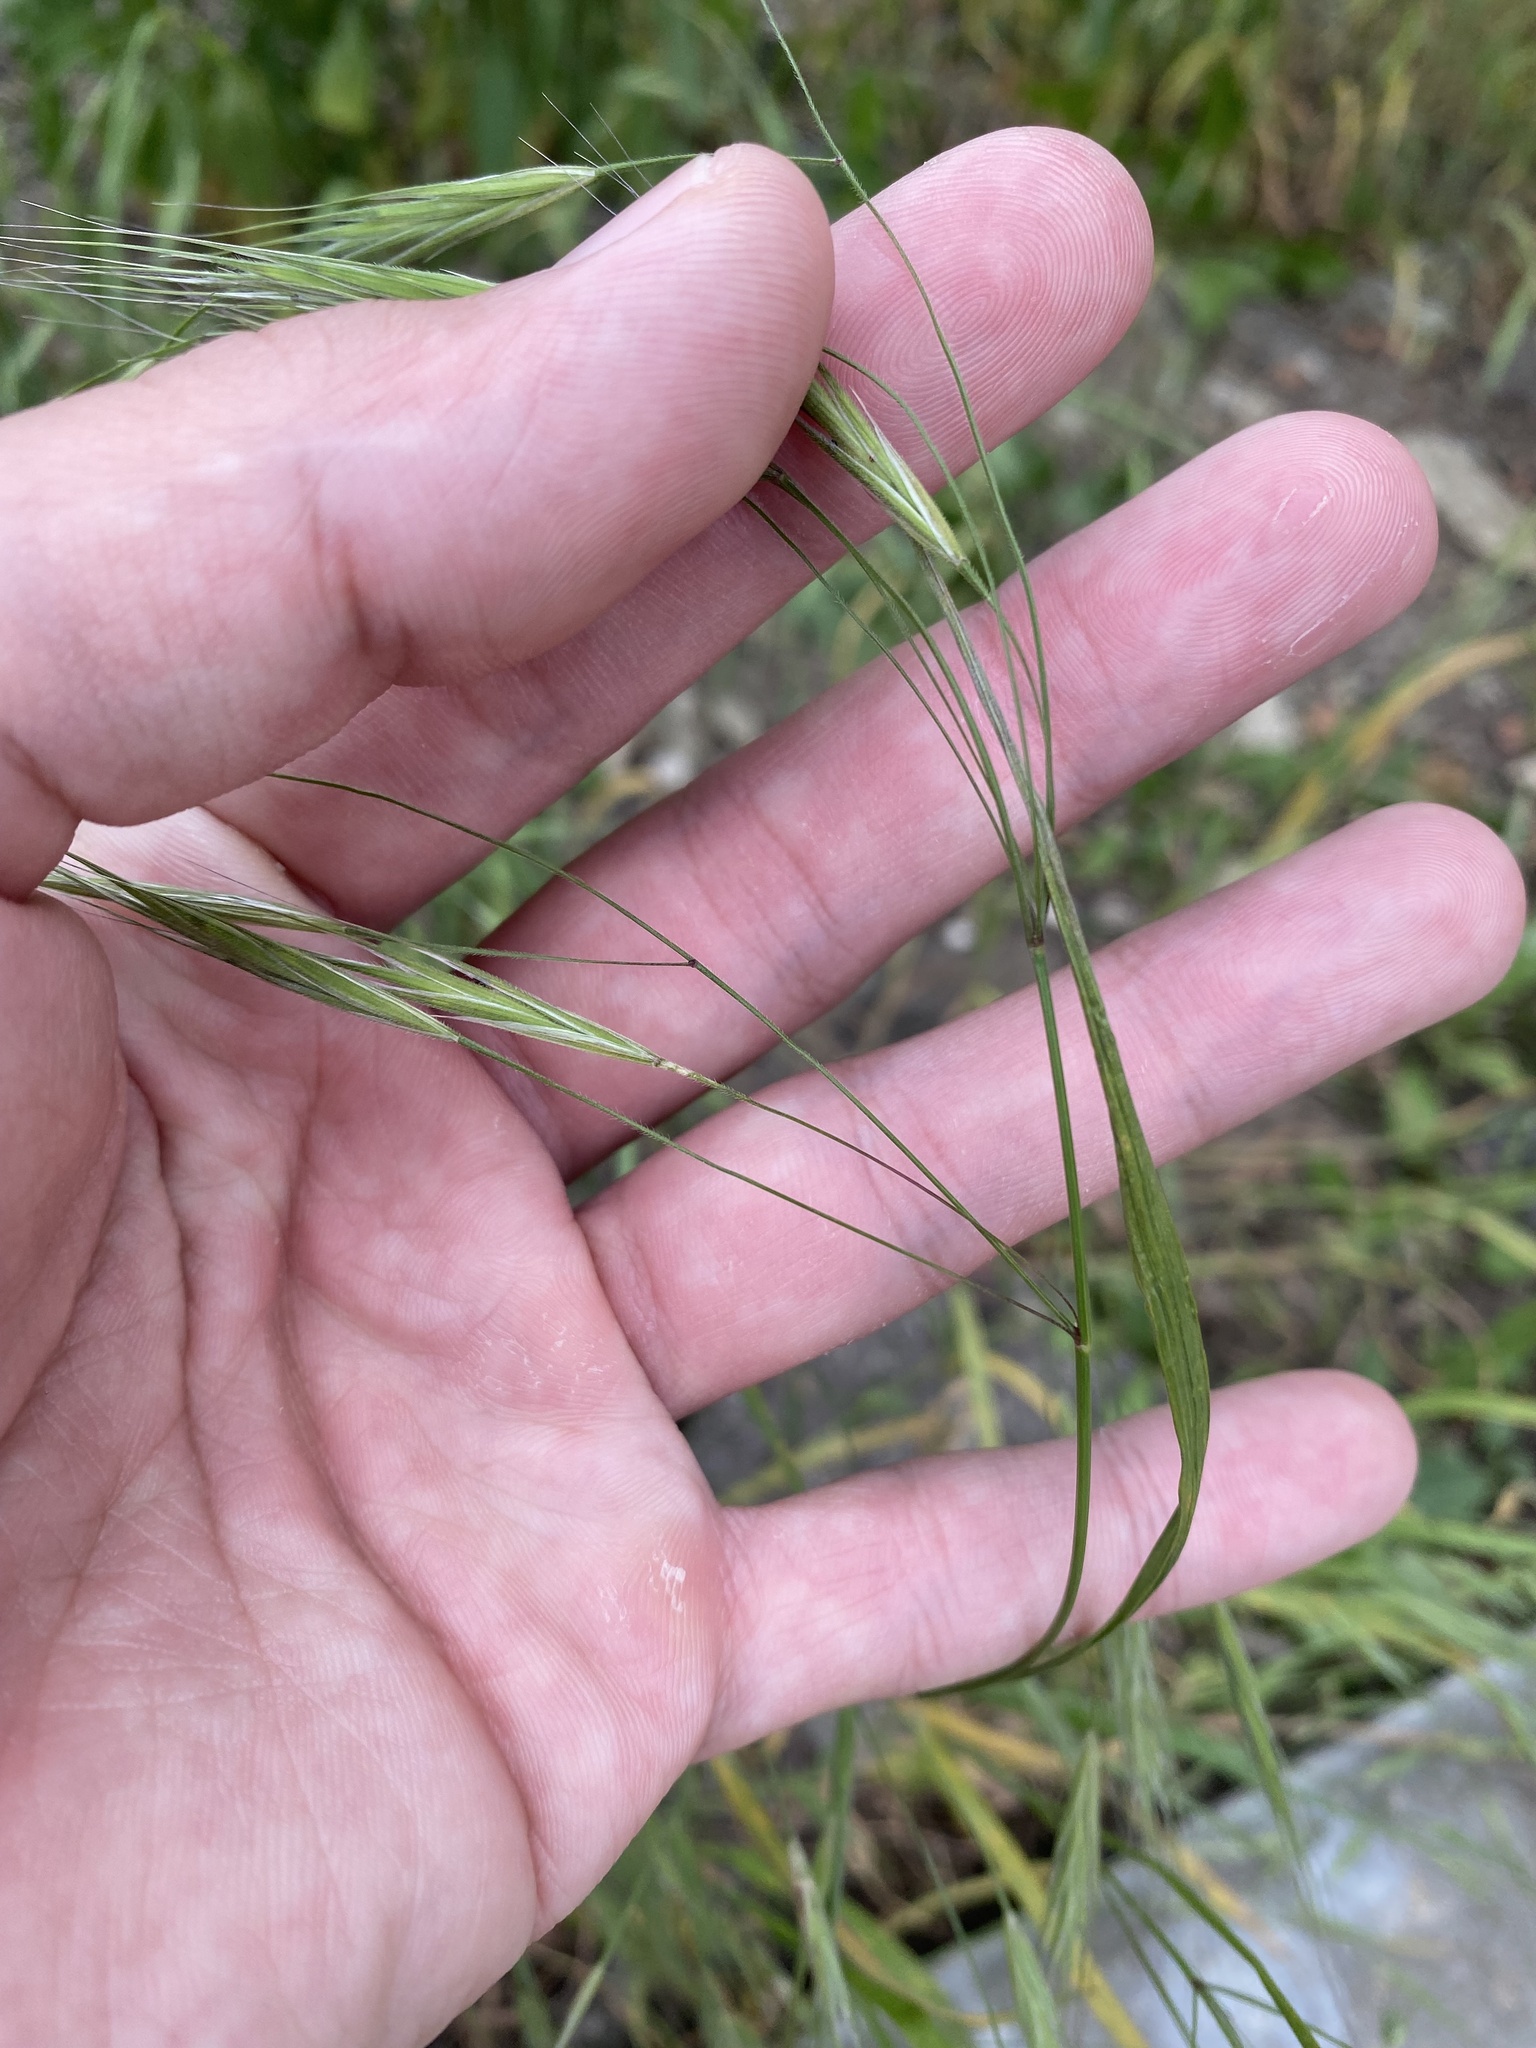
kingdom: Plantae
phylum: Tracheophyta
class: Liliopsida
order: Poales
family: Poaceae
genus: Bromus
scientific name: Bromus sterilis
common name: Poverty brome
